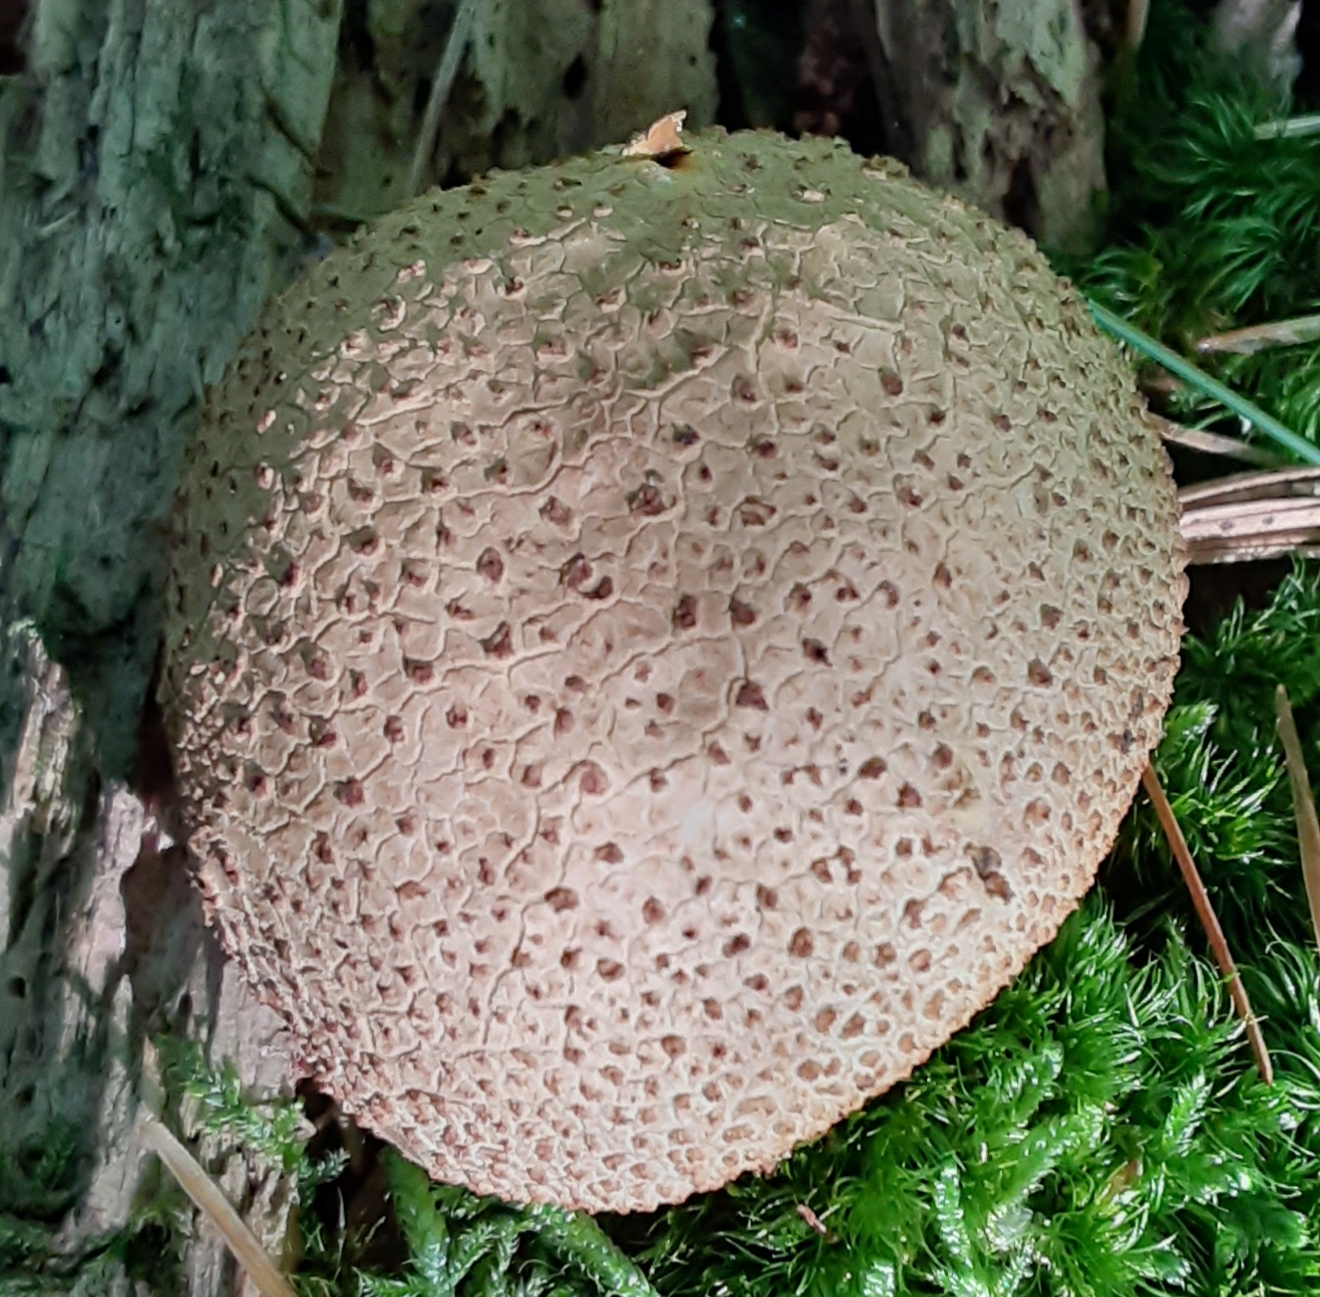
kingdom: Fungi
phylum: Basidiomycota
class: Agaricomycetes
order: Boletales
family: Sclerodermataceae
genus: Scleroderma
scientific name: Scleroderma citrinum
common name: Common earthball
